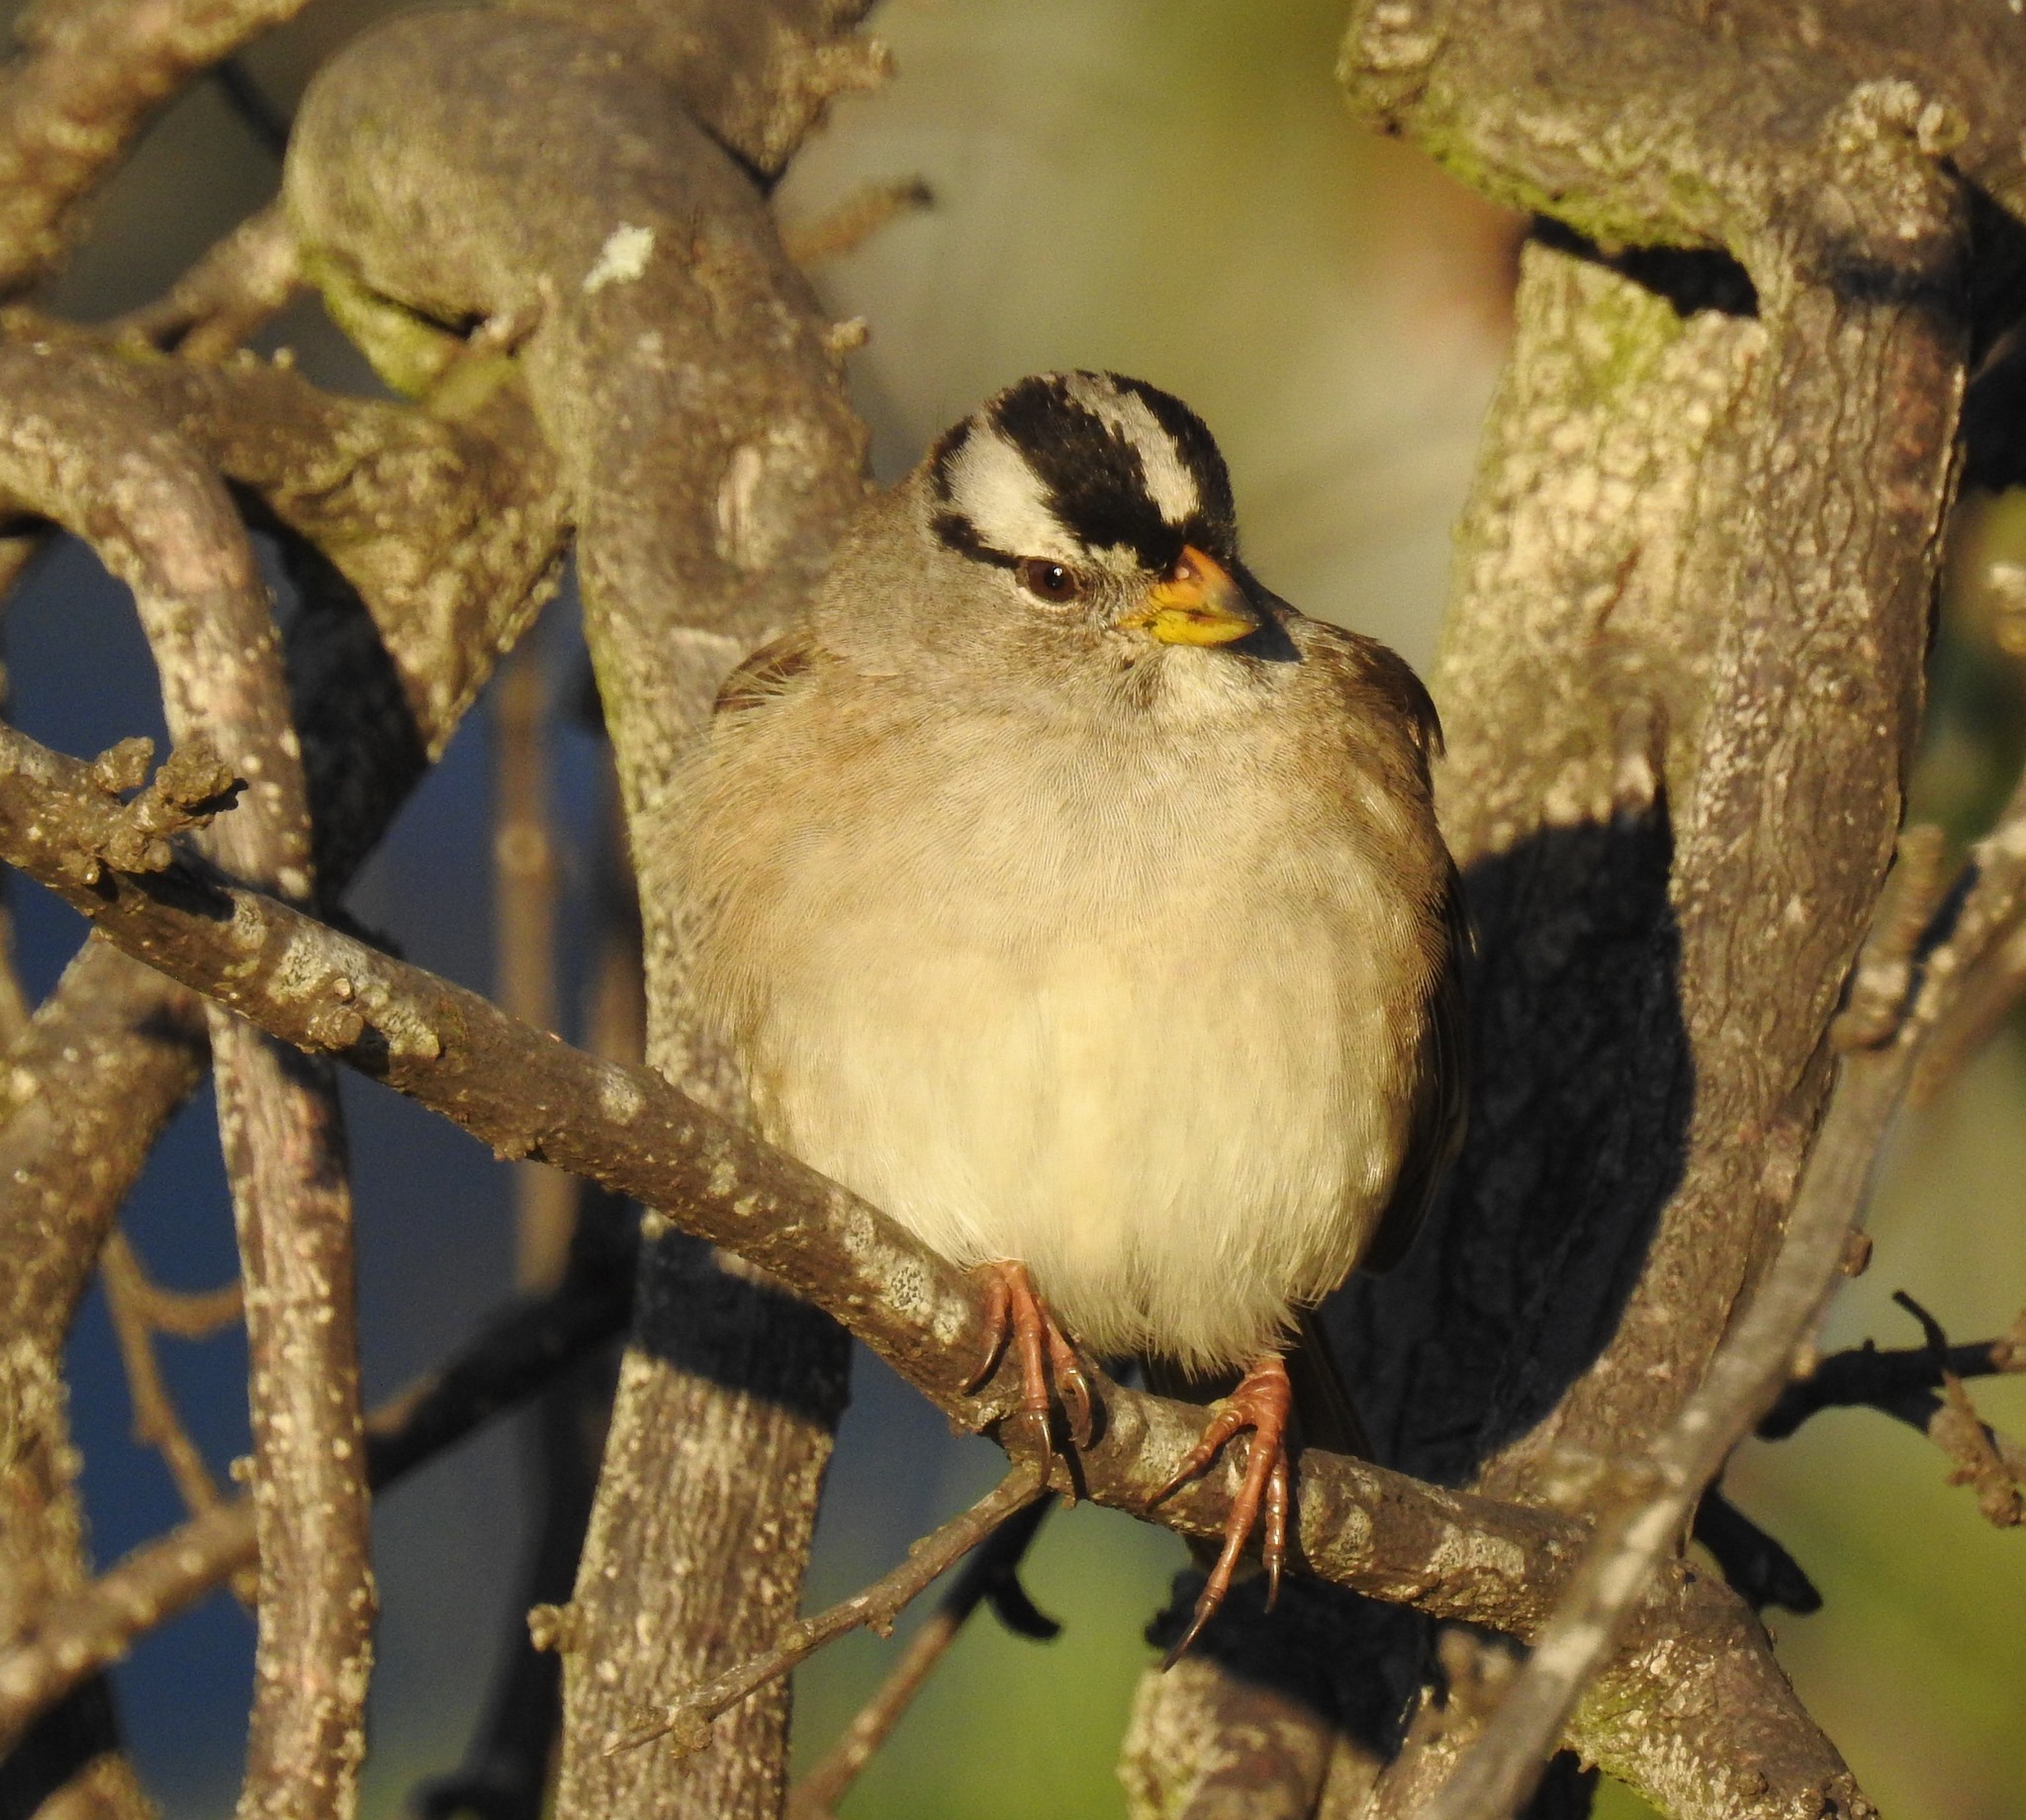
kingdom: Animalia
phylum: Chordata
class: Aves
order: Passeriformes
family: Passerellidae
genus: Zonotrichia
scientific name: Zonotrichia leucophrys
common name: White-crowned sparrow
